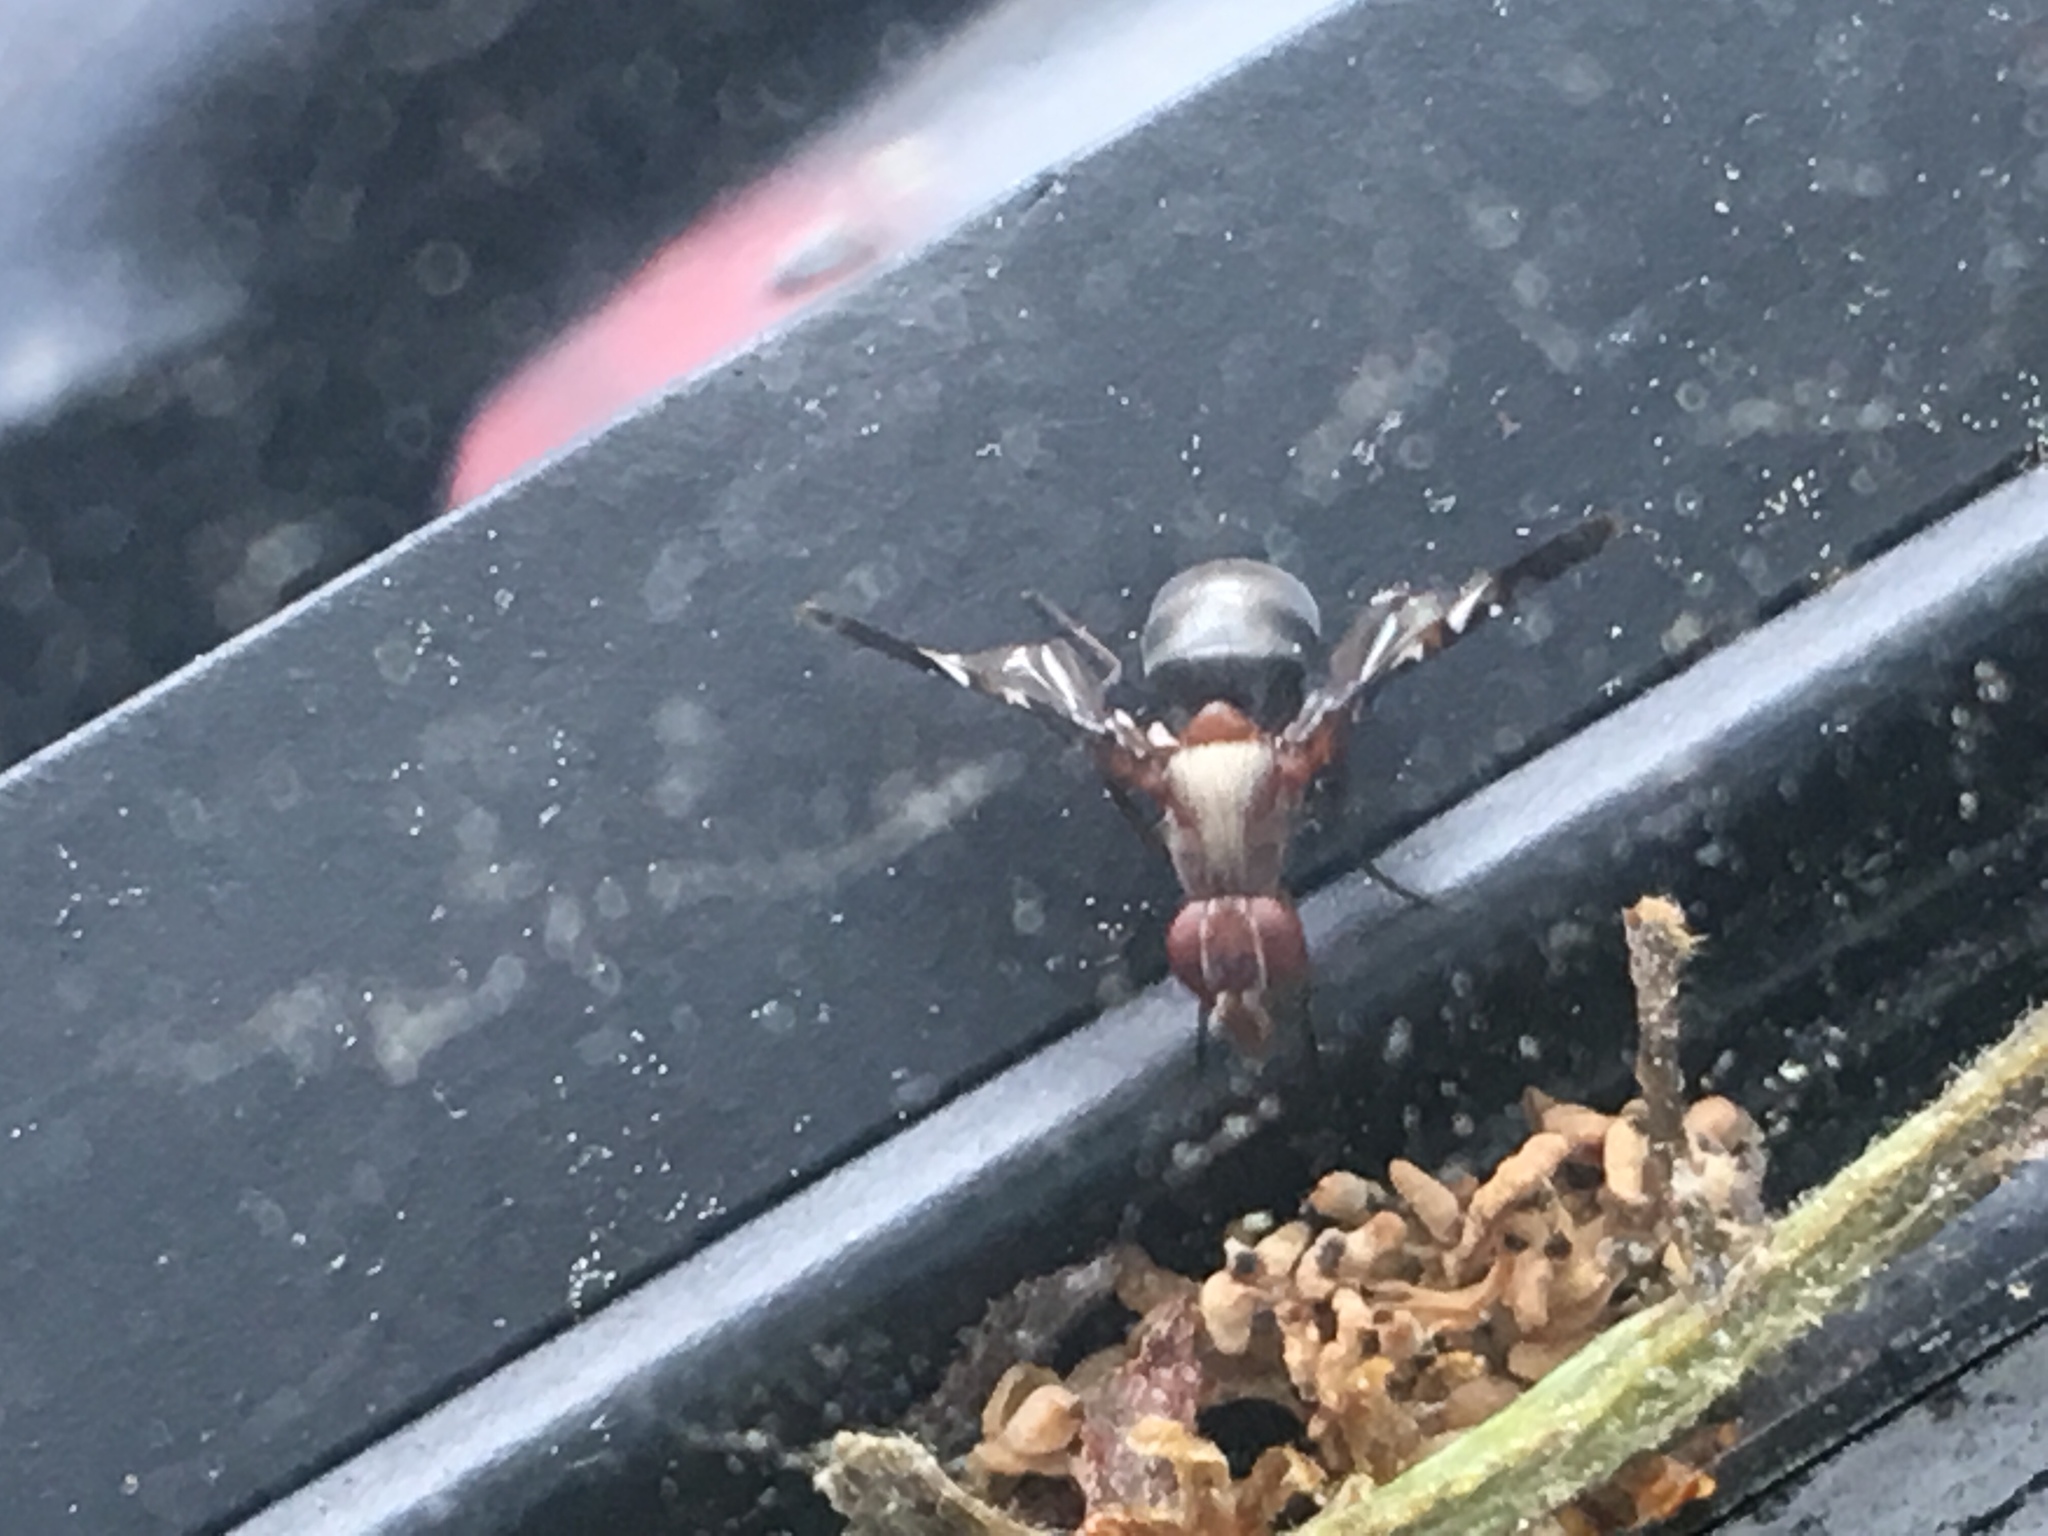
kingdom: Animalia
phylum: Arthropoda
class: Insecta
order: Diptera
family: Ulidiidae
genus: Delphinia
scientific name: Delphinia picta
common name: Common picture-winged fly
